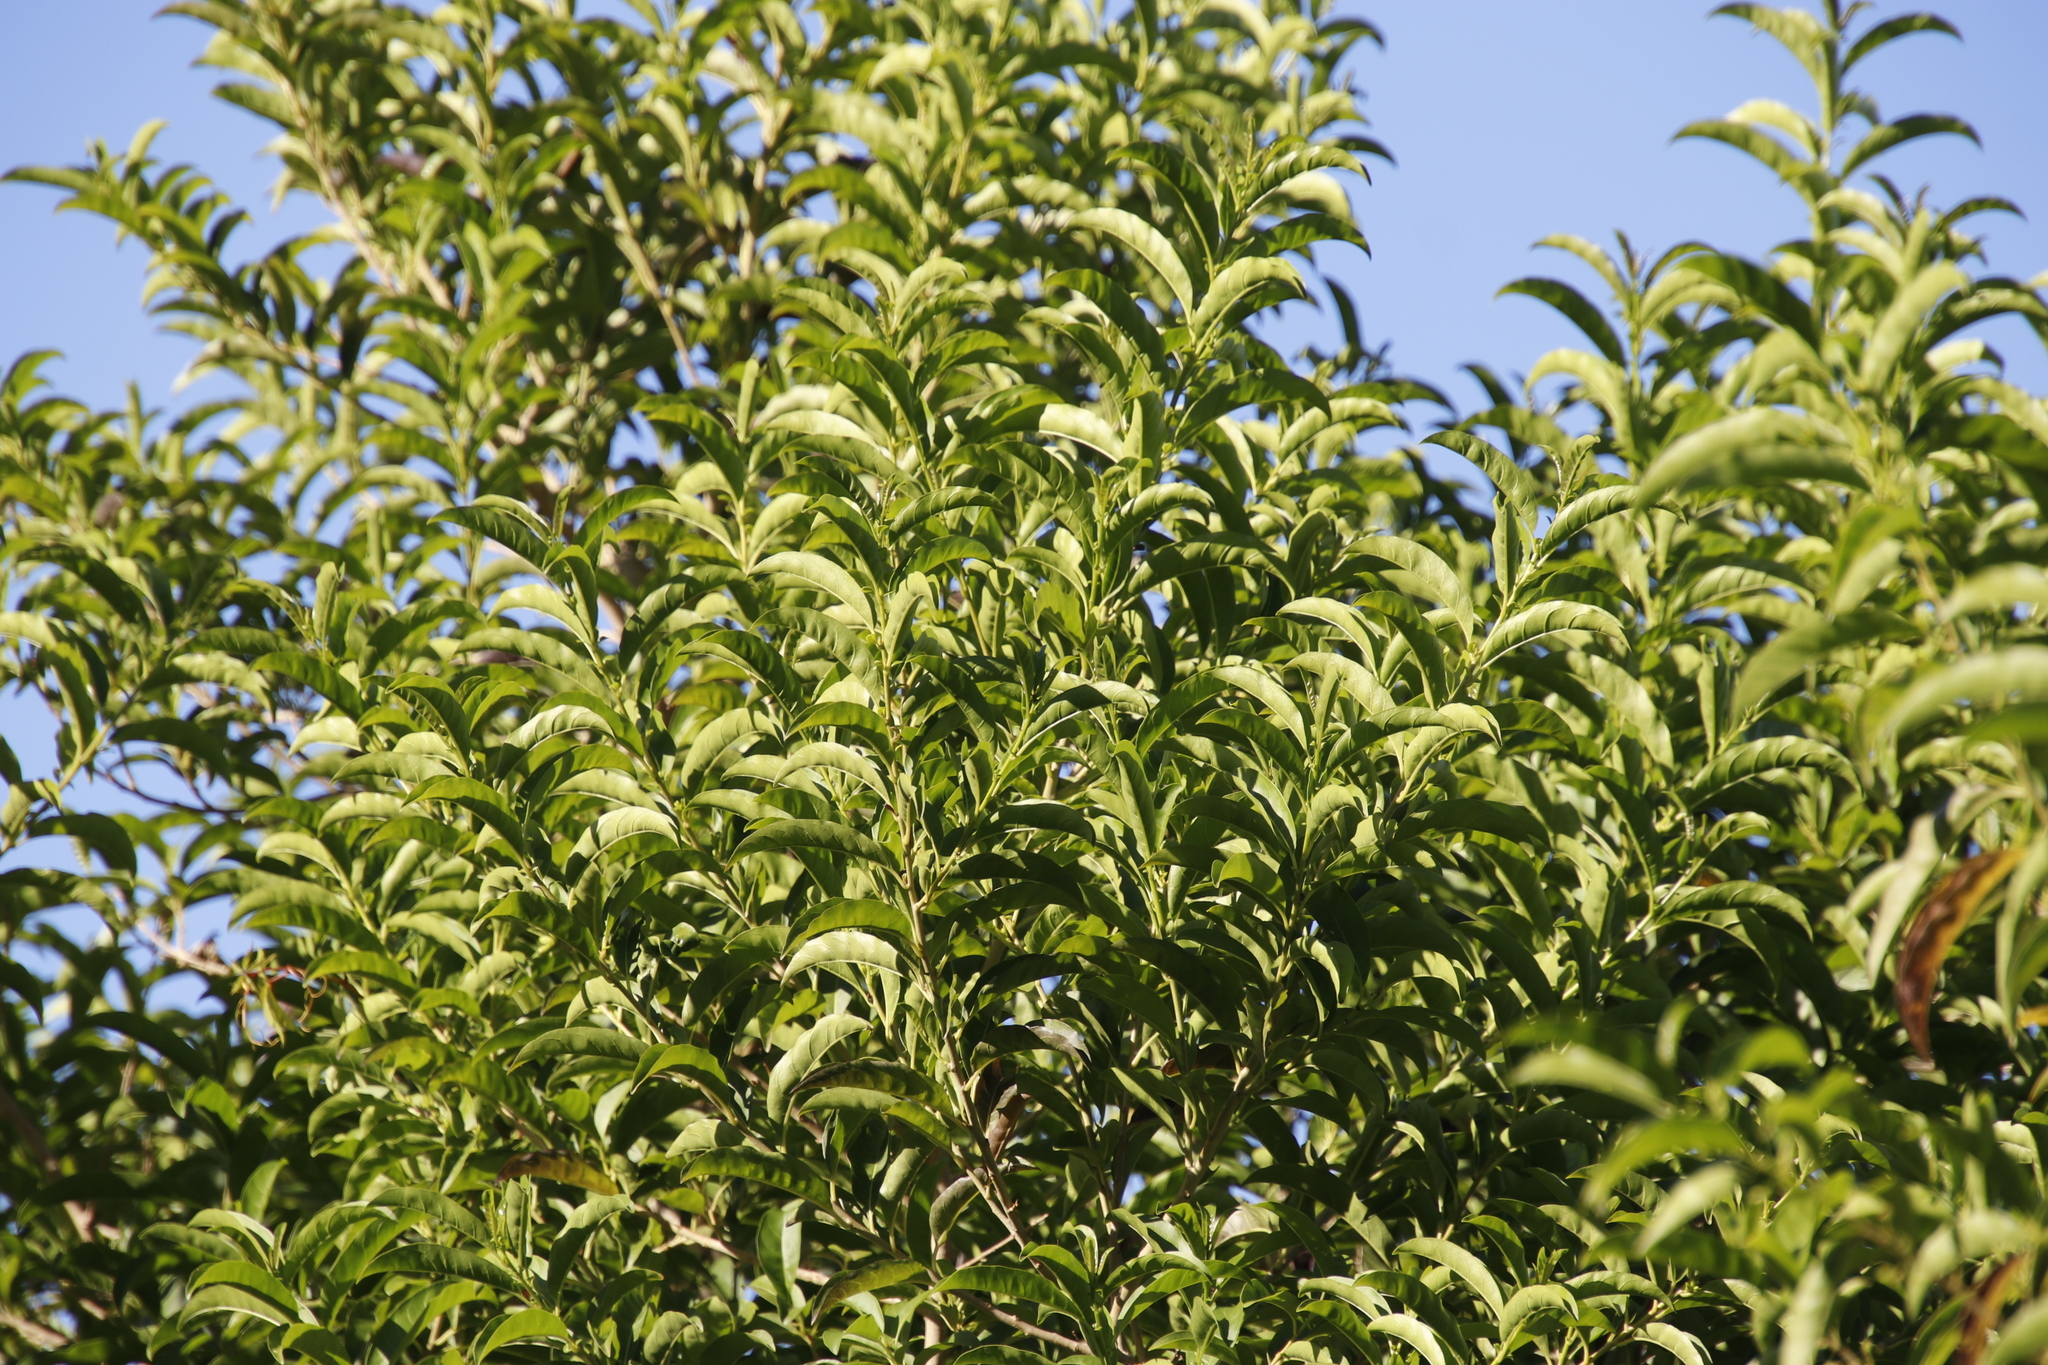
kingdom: Plantae
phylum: Tracheophyta
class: Magnoliopsida
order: Solanales
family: Solanaceae
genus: Cestrum
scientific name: Cestrum laevigatum
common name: Inkberry
